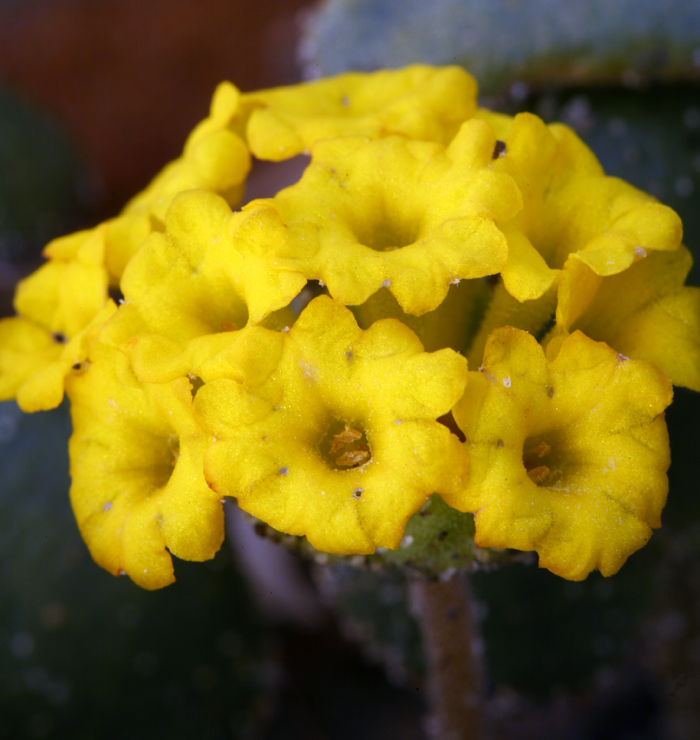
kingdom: Plantae
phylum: Tracheophyta
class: Magnoliopsida
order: Caryophyllales
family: Nyctaginaceae
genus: Abronia
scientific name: Abronia latifolia
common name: Yellow sand-verbena
